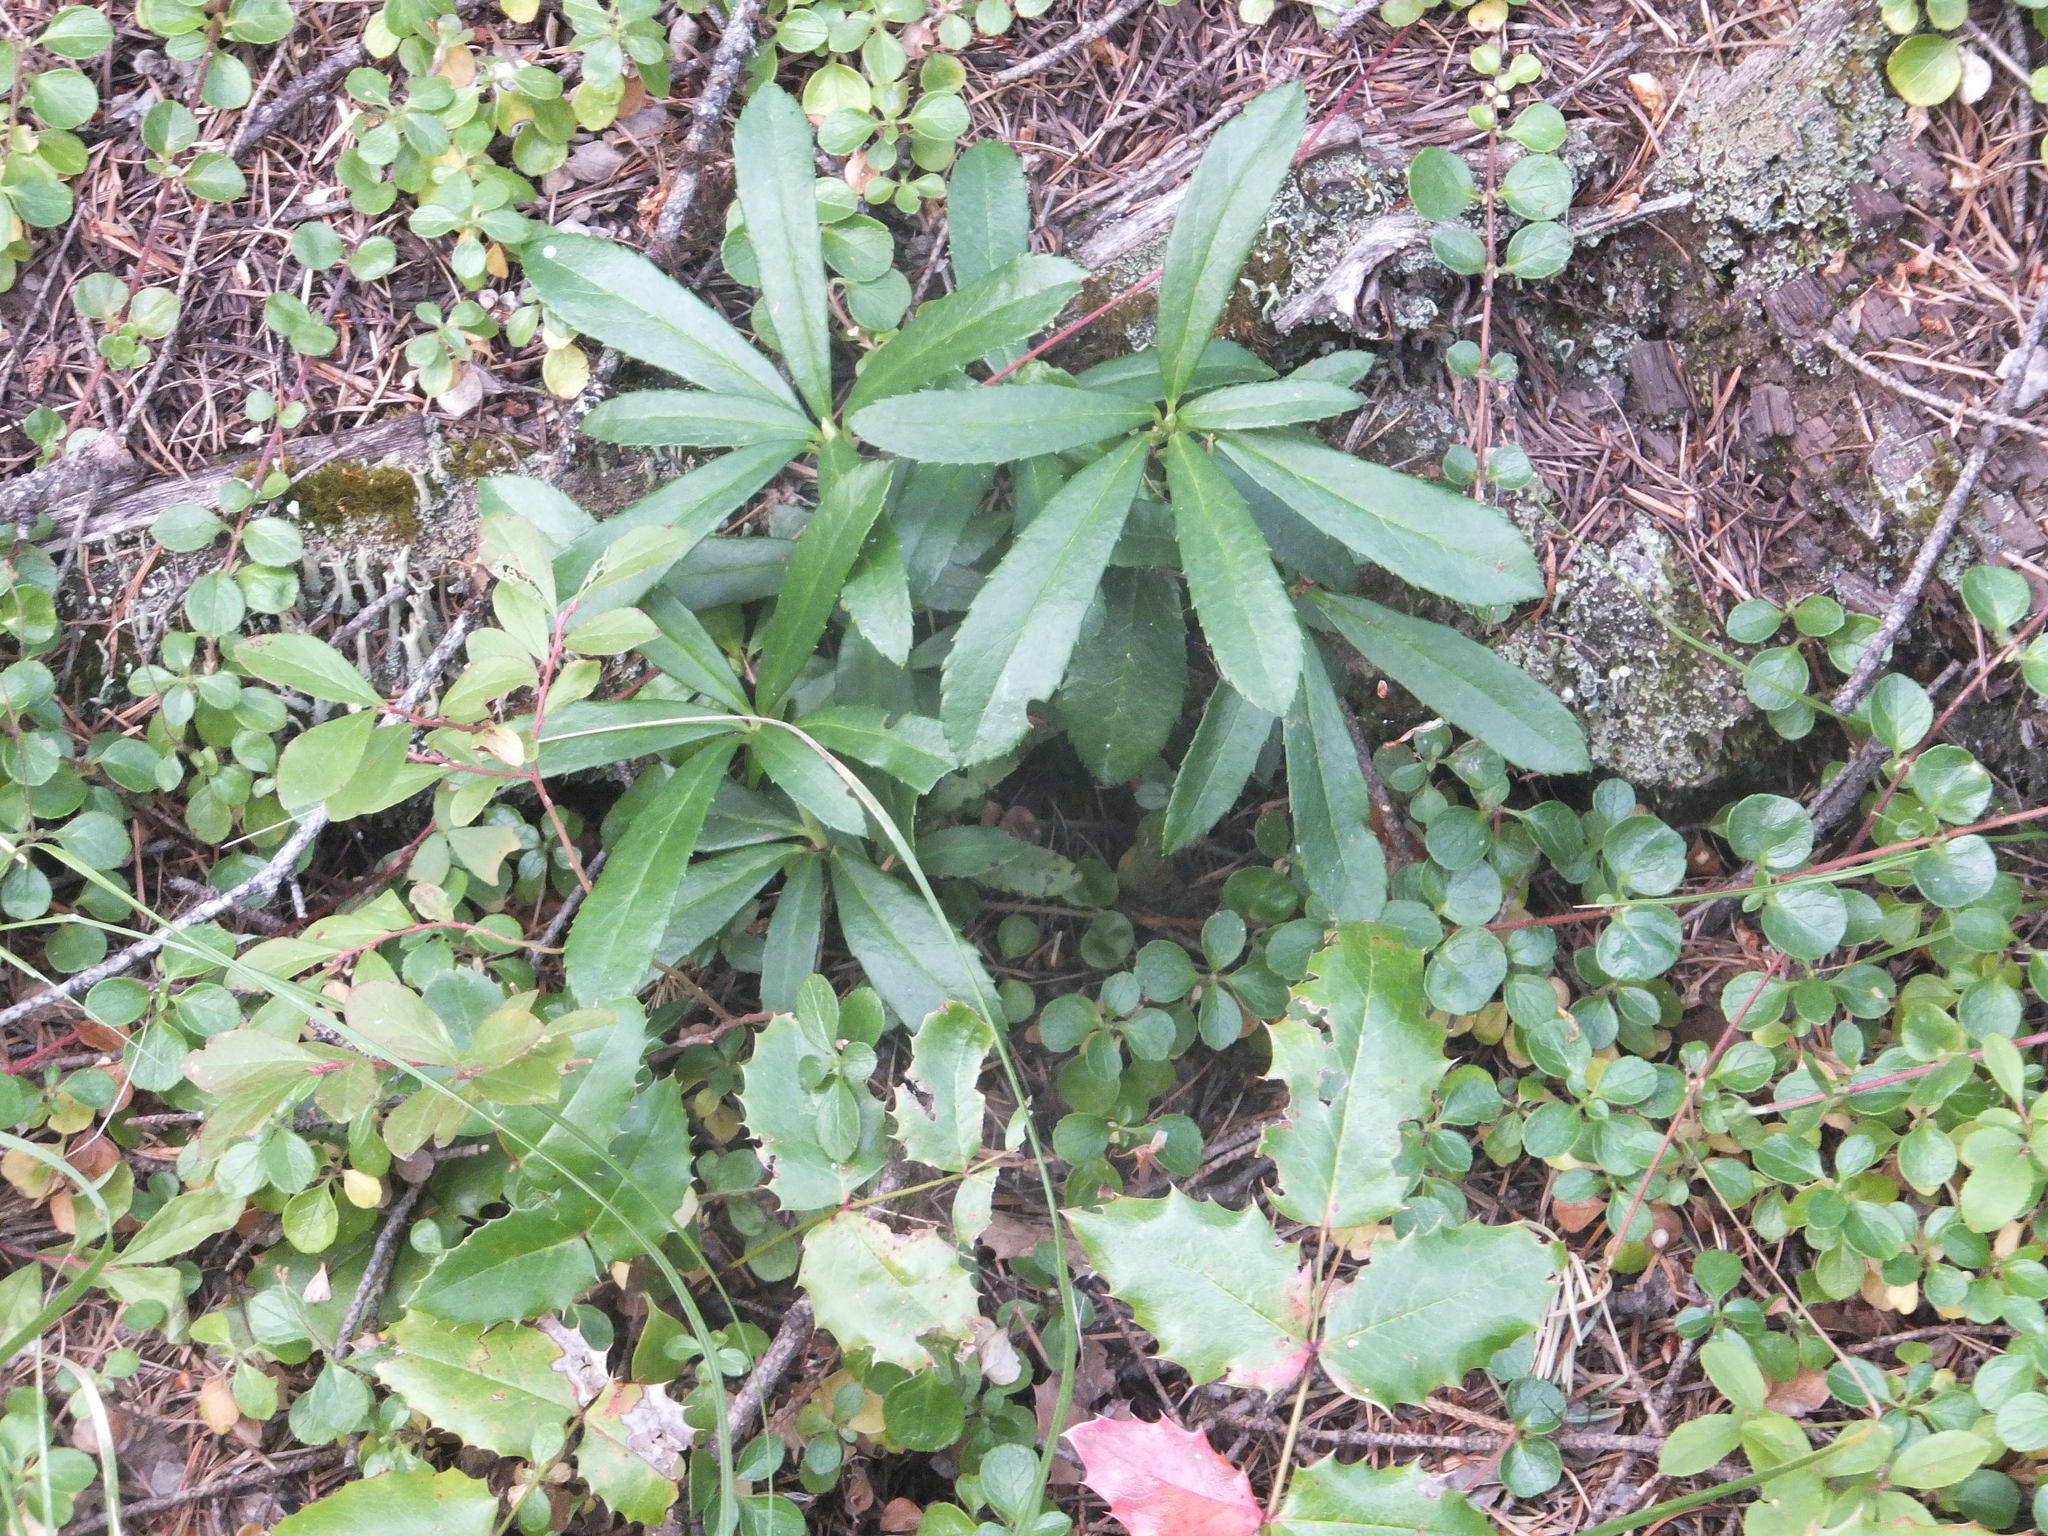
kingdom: Plantae
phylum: Tracheophyta
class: Magnoliopsida
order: Ericales
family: Ericaceae
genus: Chimaphila
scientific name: Chimaphila umbellata
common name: Pipsissewa
